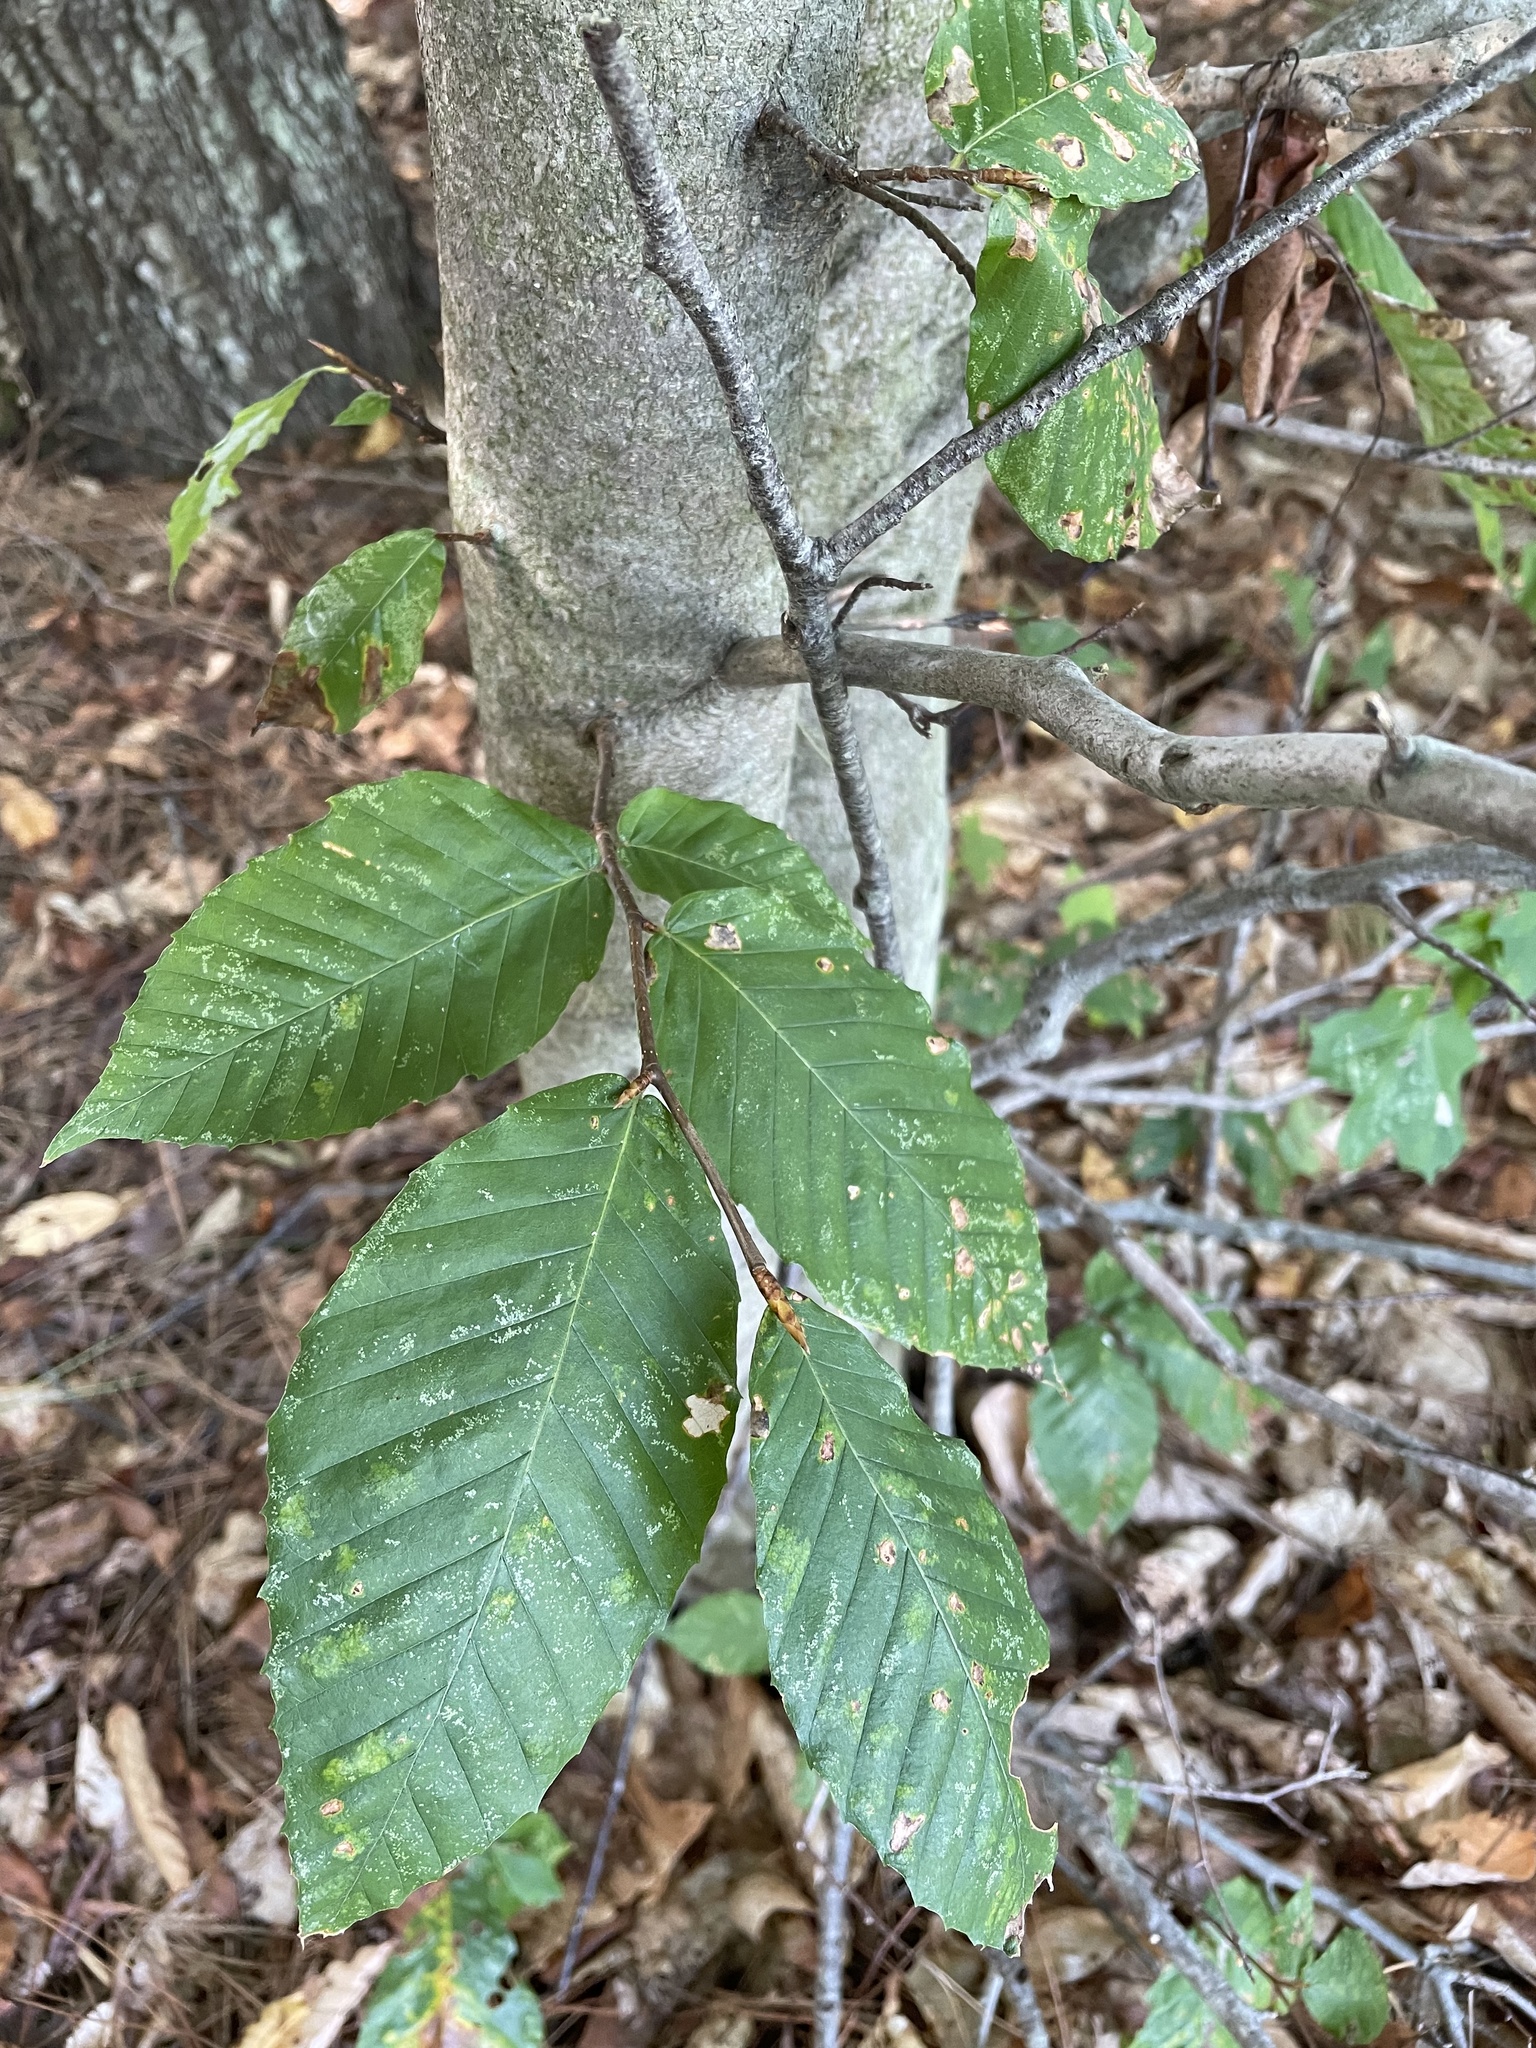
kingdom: Plantae
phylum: Tracheophyta
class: Magnoliopsida
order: Fagales
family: Fagaceae
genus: Fagus
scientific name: Fagus grandifolia
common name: American beech
